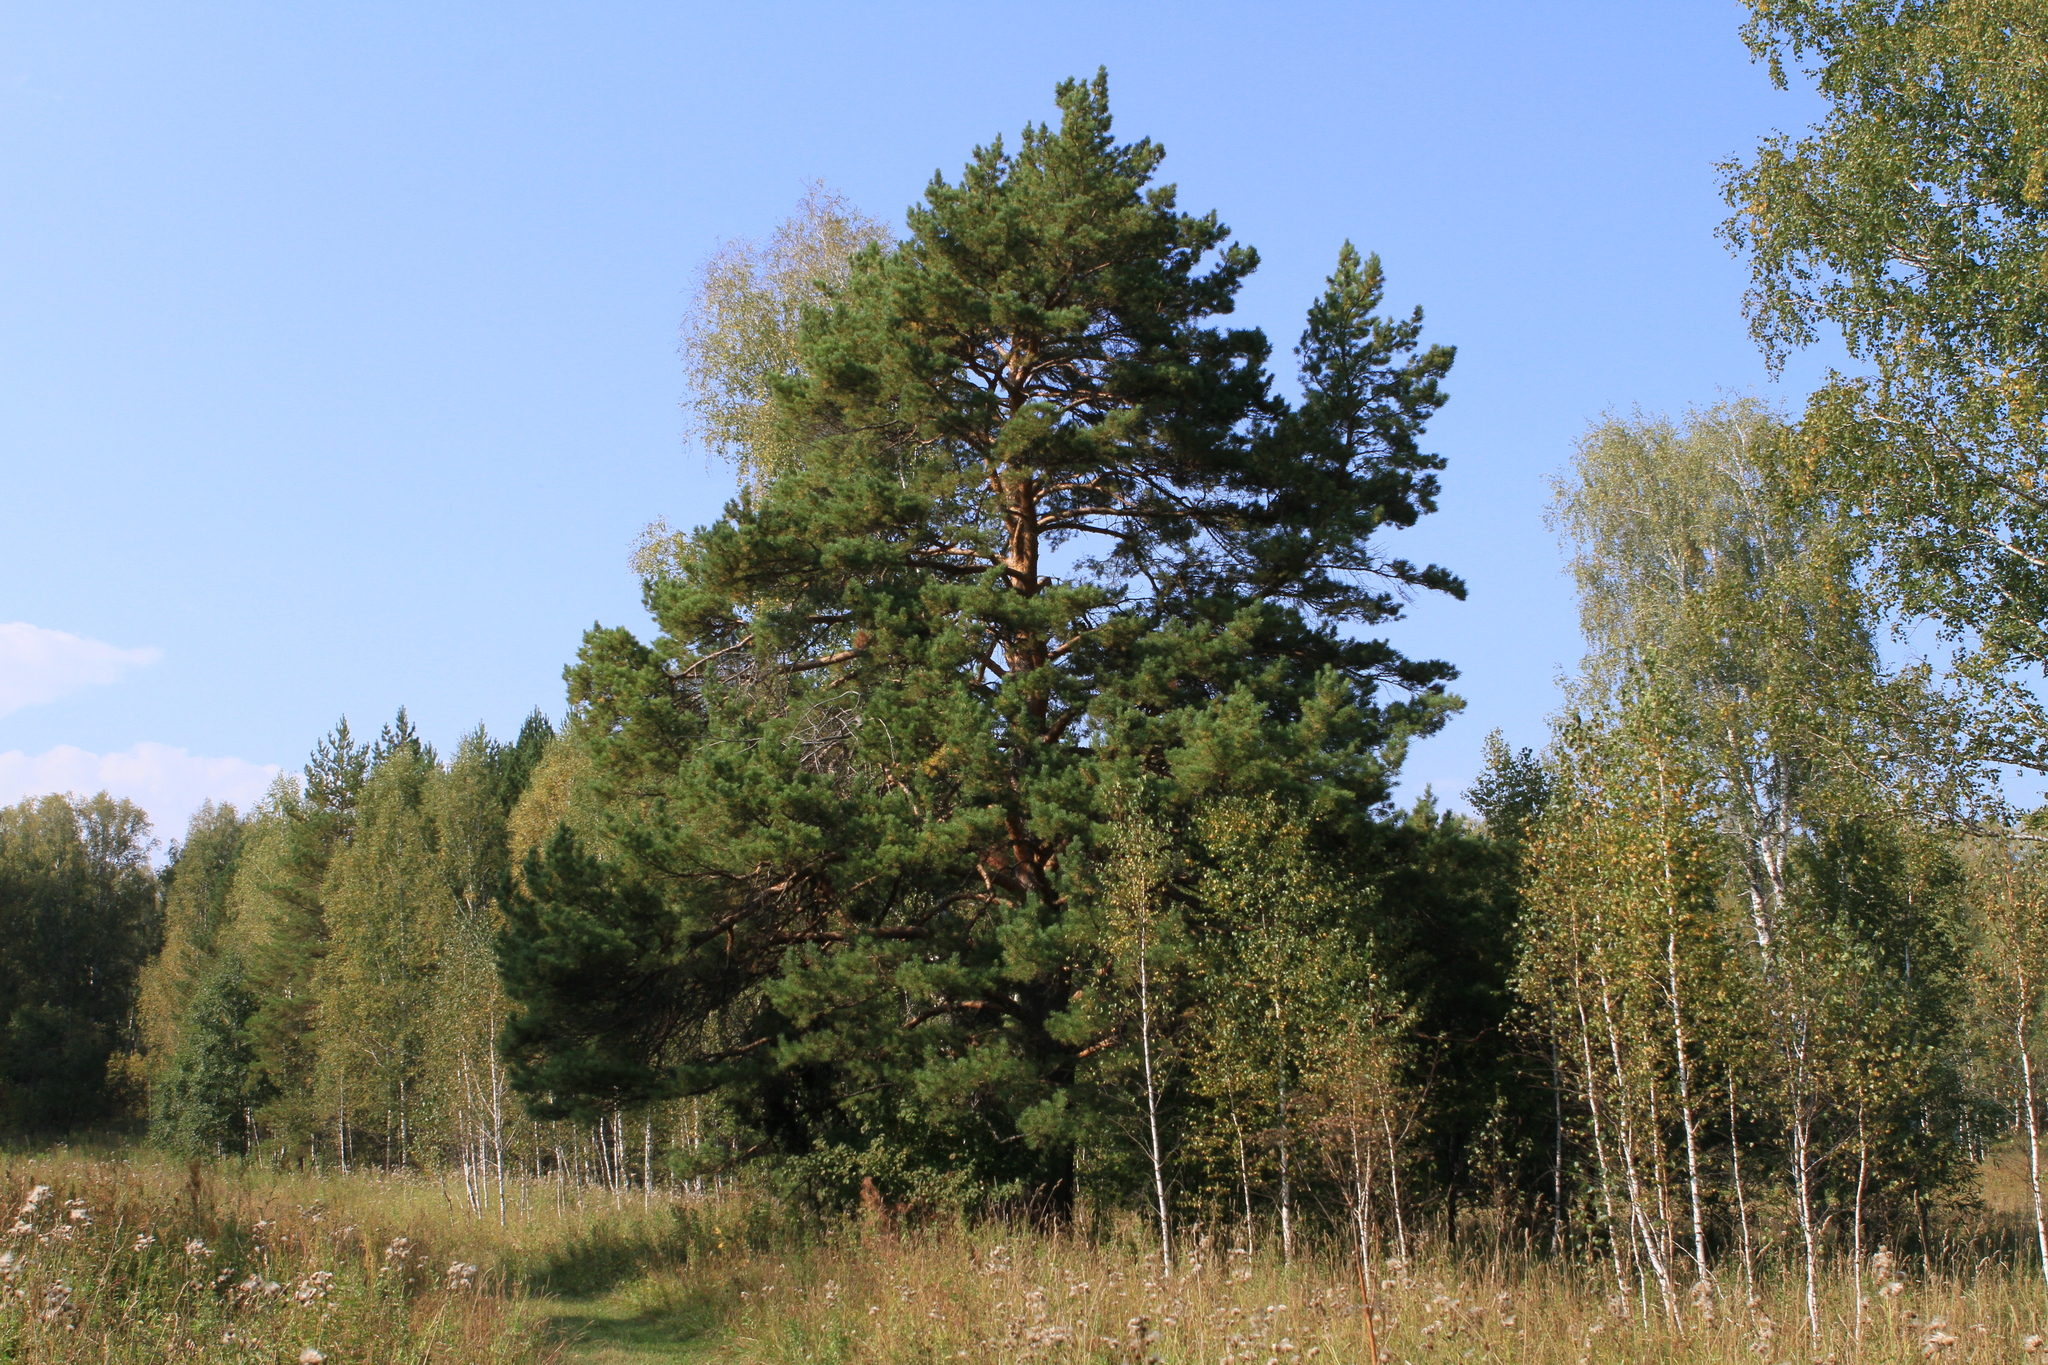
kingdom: Plantae
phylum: Tracheophyta
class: Pinopsida
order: Pinales
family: Pinaceae
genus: Pinus
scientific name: Pinus sylvestris
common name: Scots pine
